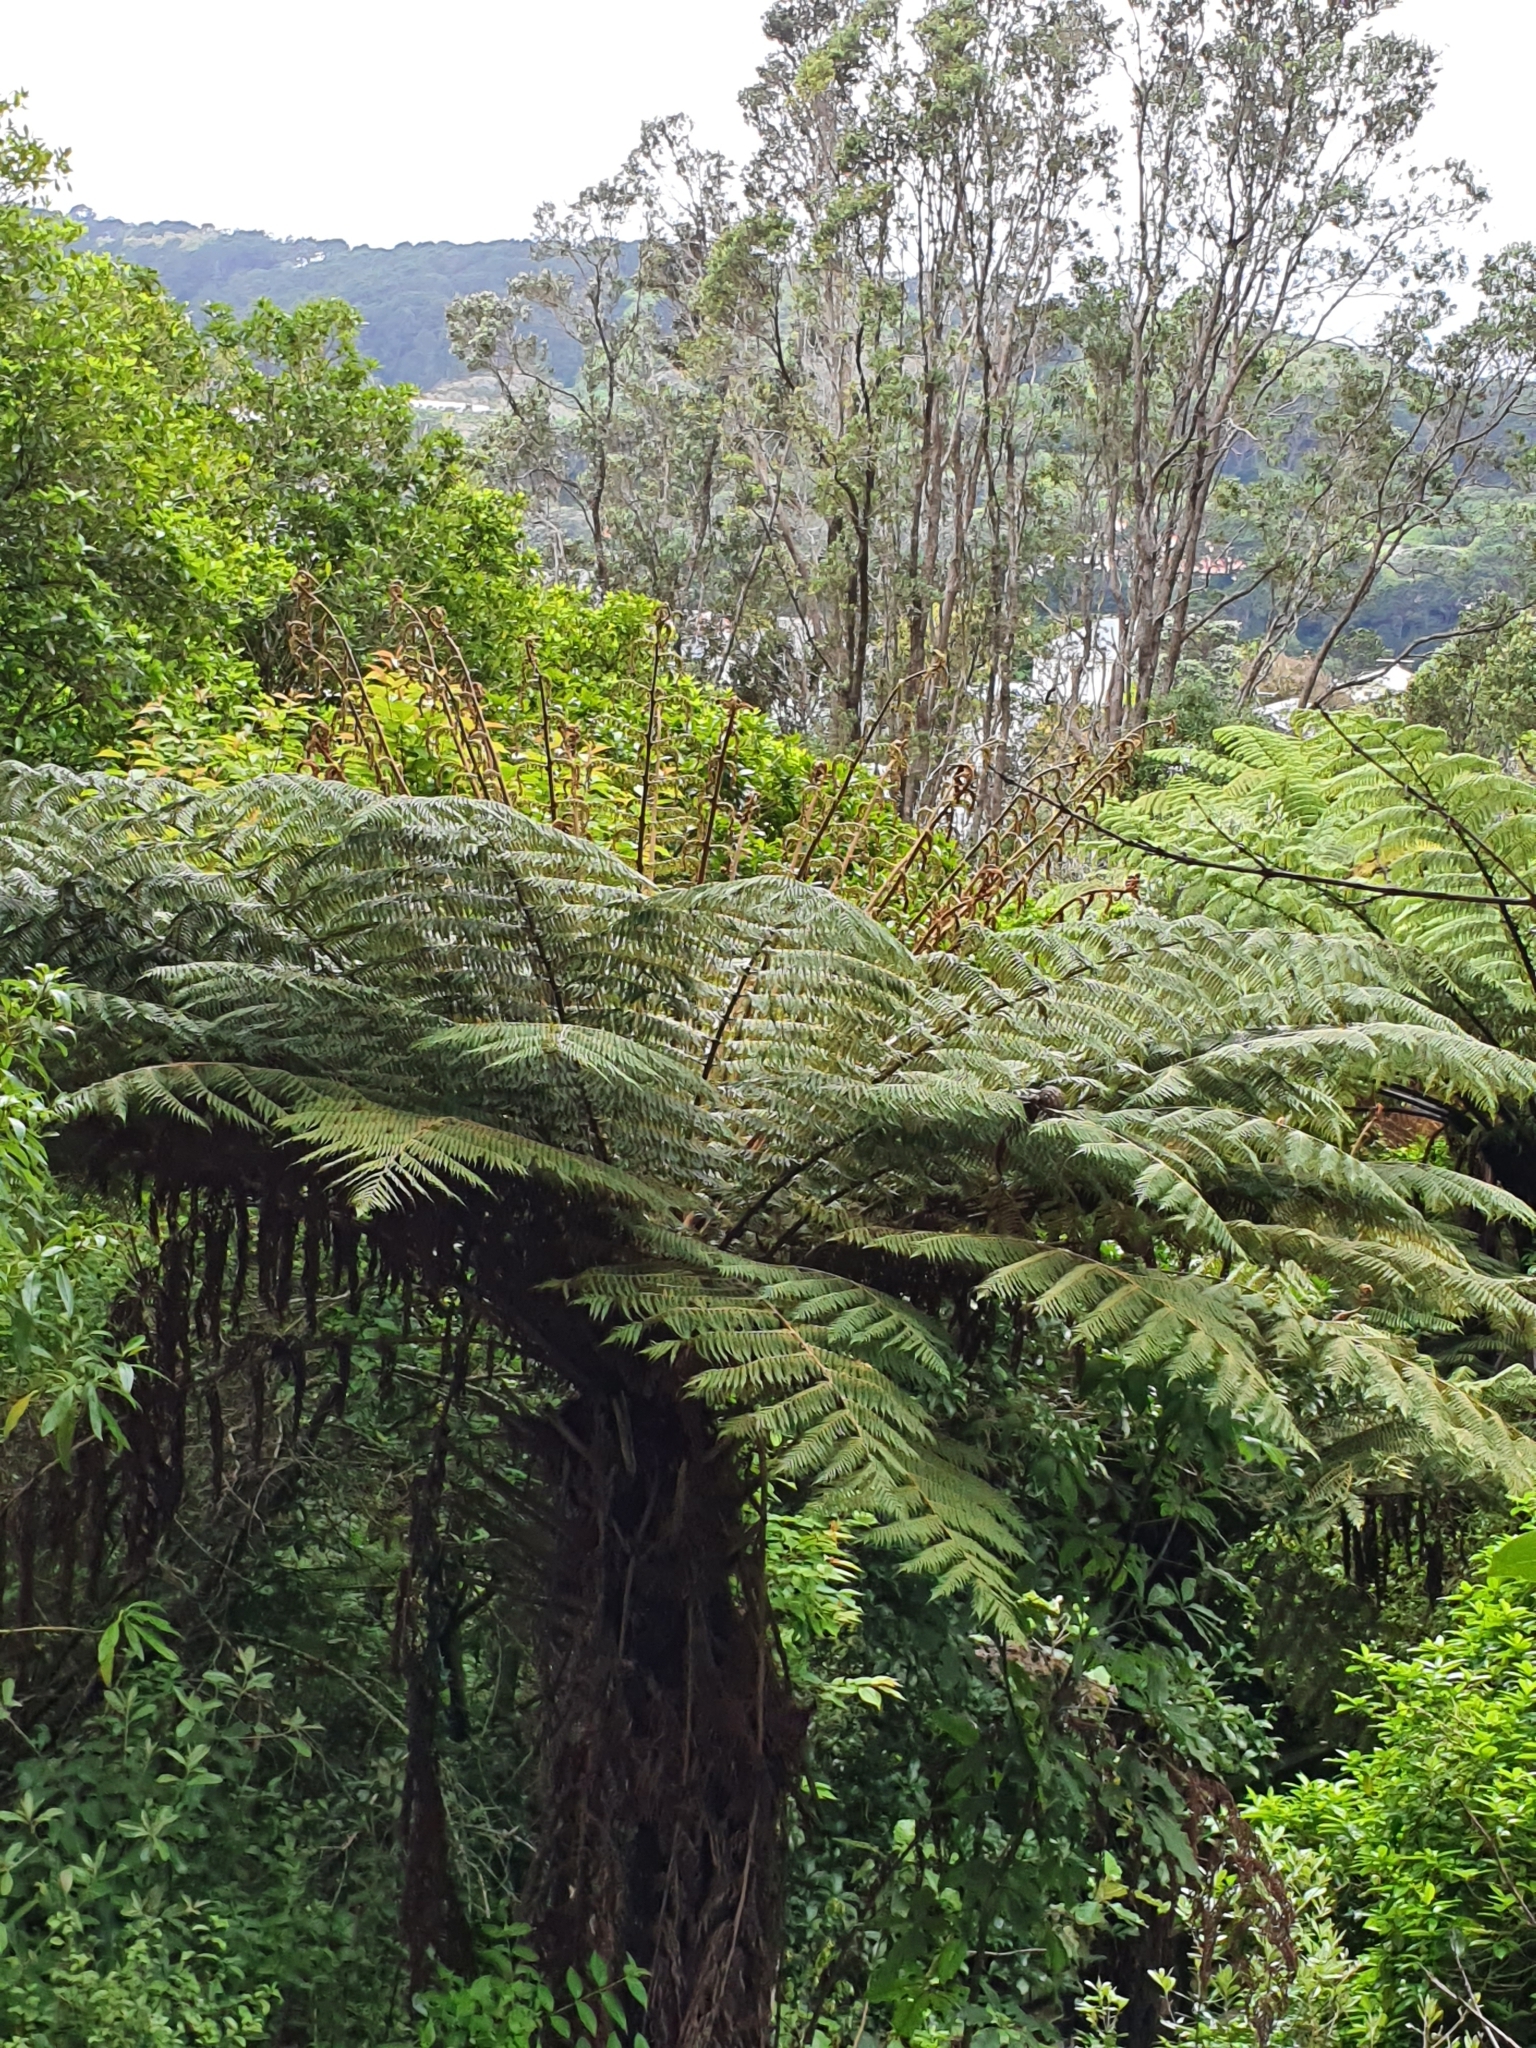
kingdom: Plantae
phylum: Tracheophyta
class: Polypodiopsida
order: Cyatheales
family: Cyatheaceae
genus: Alsophila
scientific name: Alsophila dealbata
